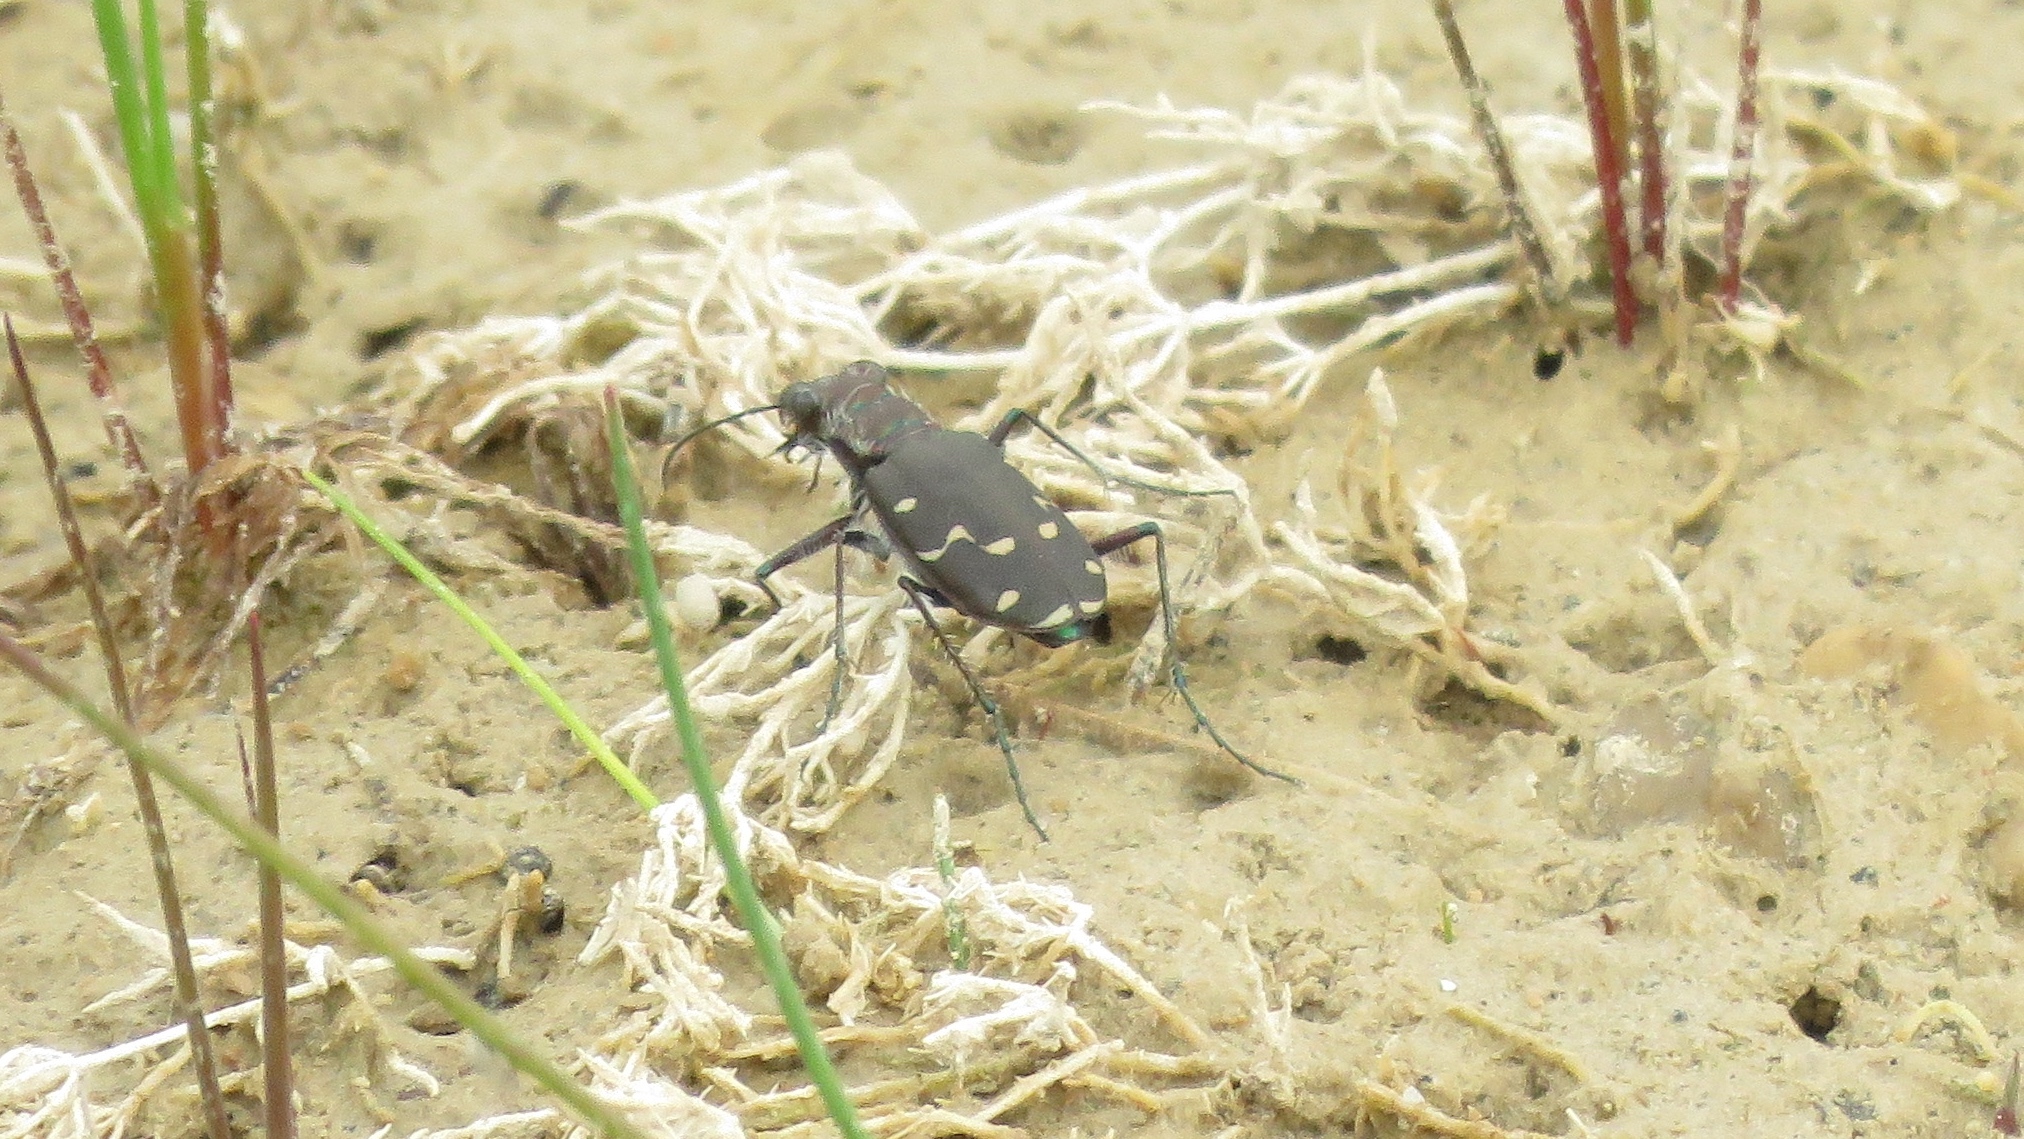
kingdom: Animalia
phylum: Arthropoda
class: Insecta
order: Coleoptera
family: Carabidae
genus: Cicindela
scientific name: Cicindela duodecimguttata
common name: Twelve-spotted tiger beetle
